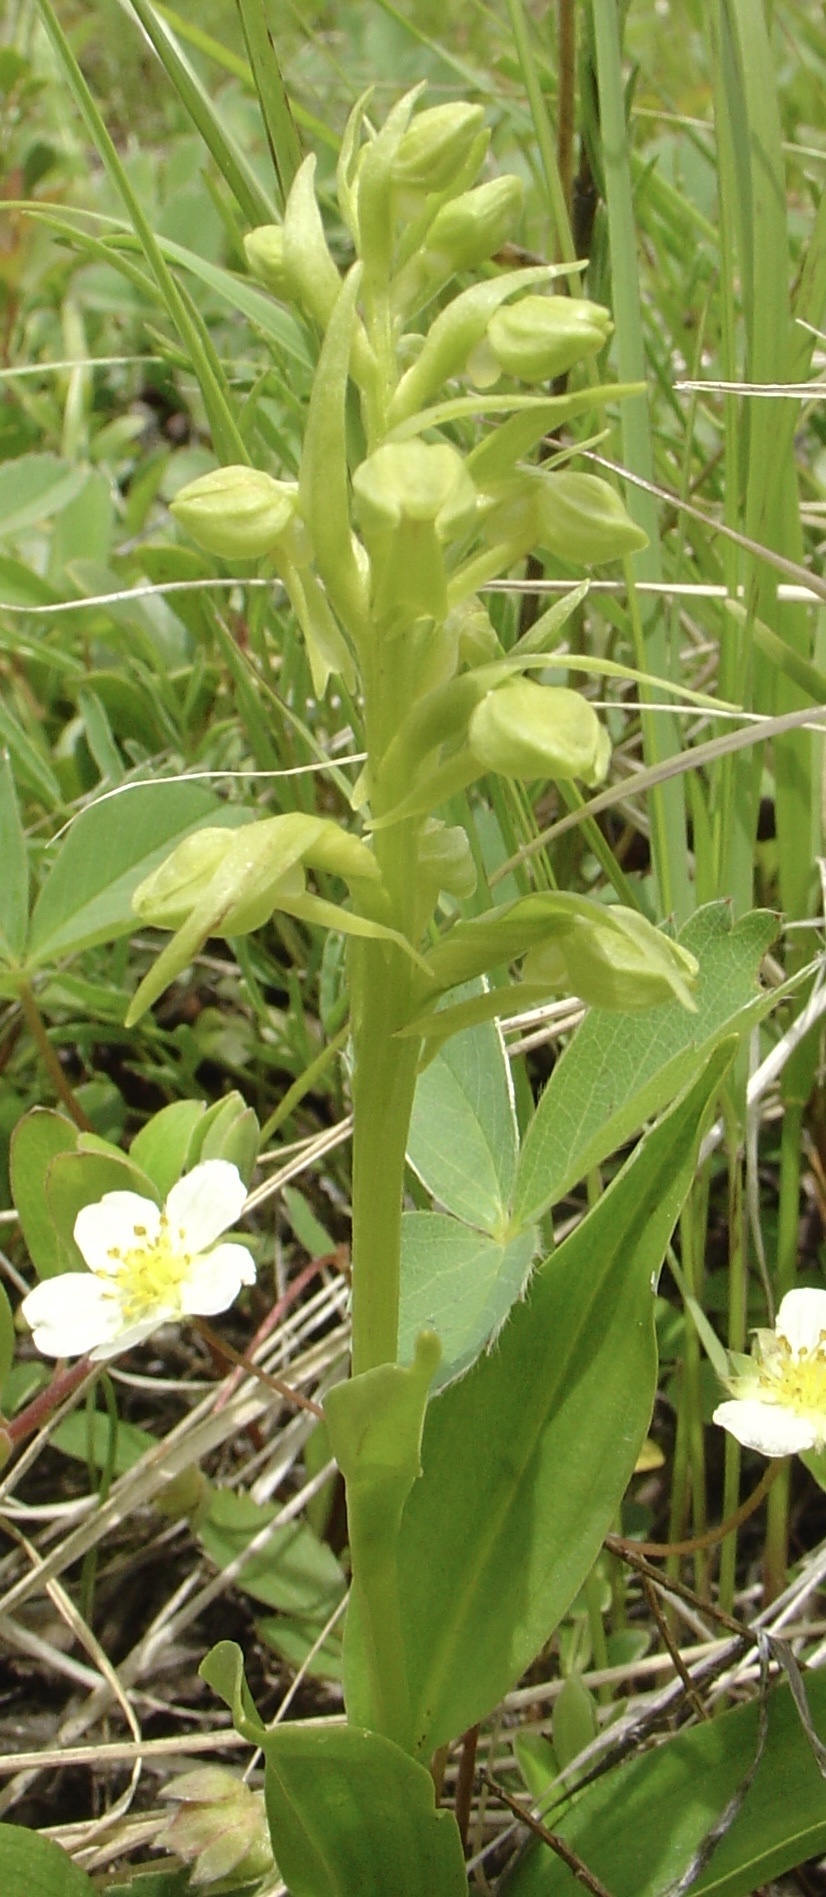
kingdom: Plantae
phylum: Tracheophyta
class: Liliopsida
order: Asparagales
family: Orchidaceae
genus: Dactylorhiza
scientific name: Dactylorhiza viridis
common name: Longbract frog orchid
